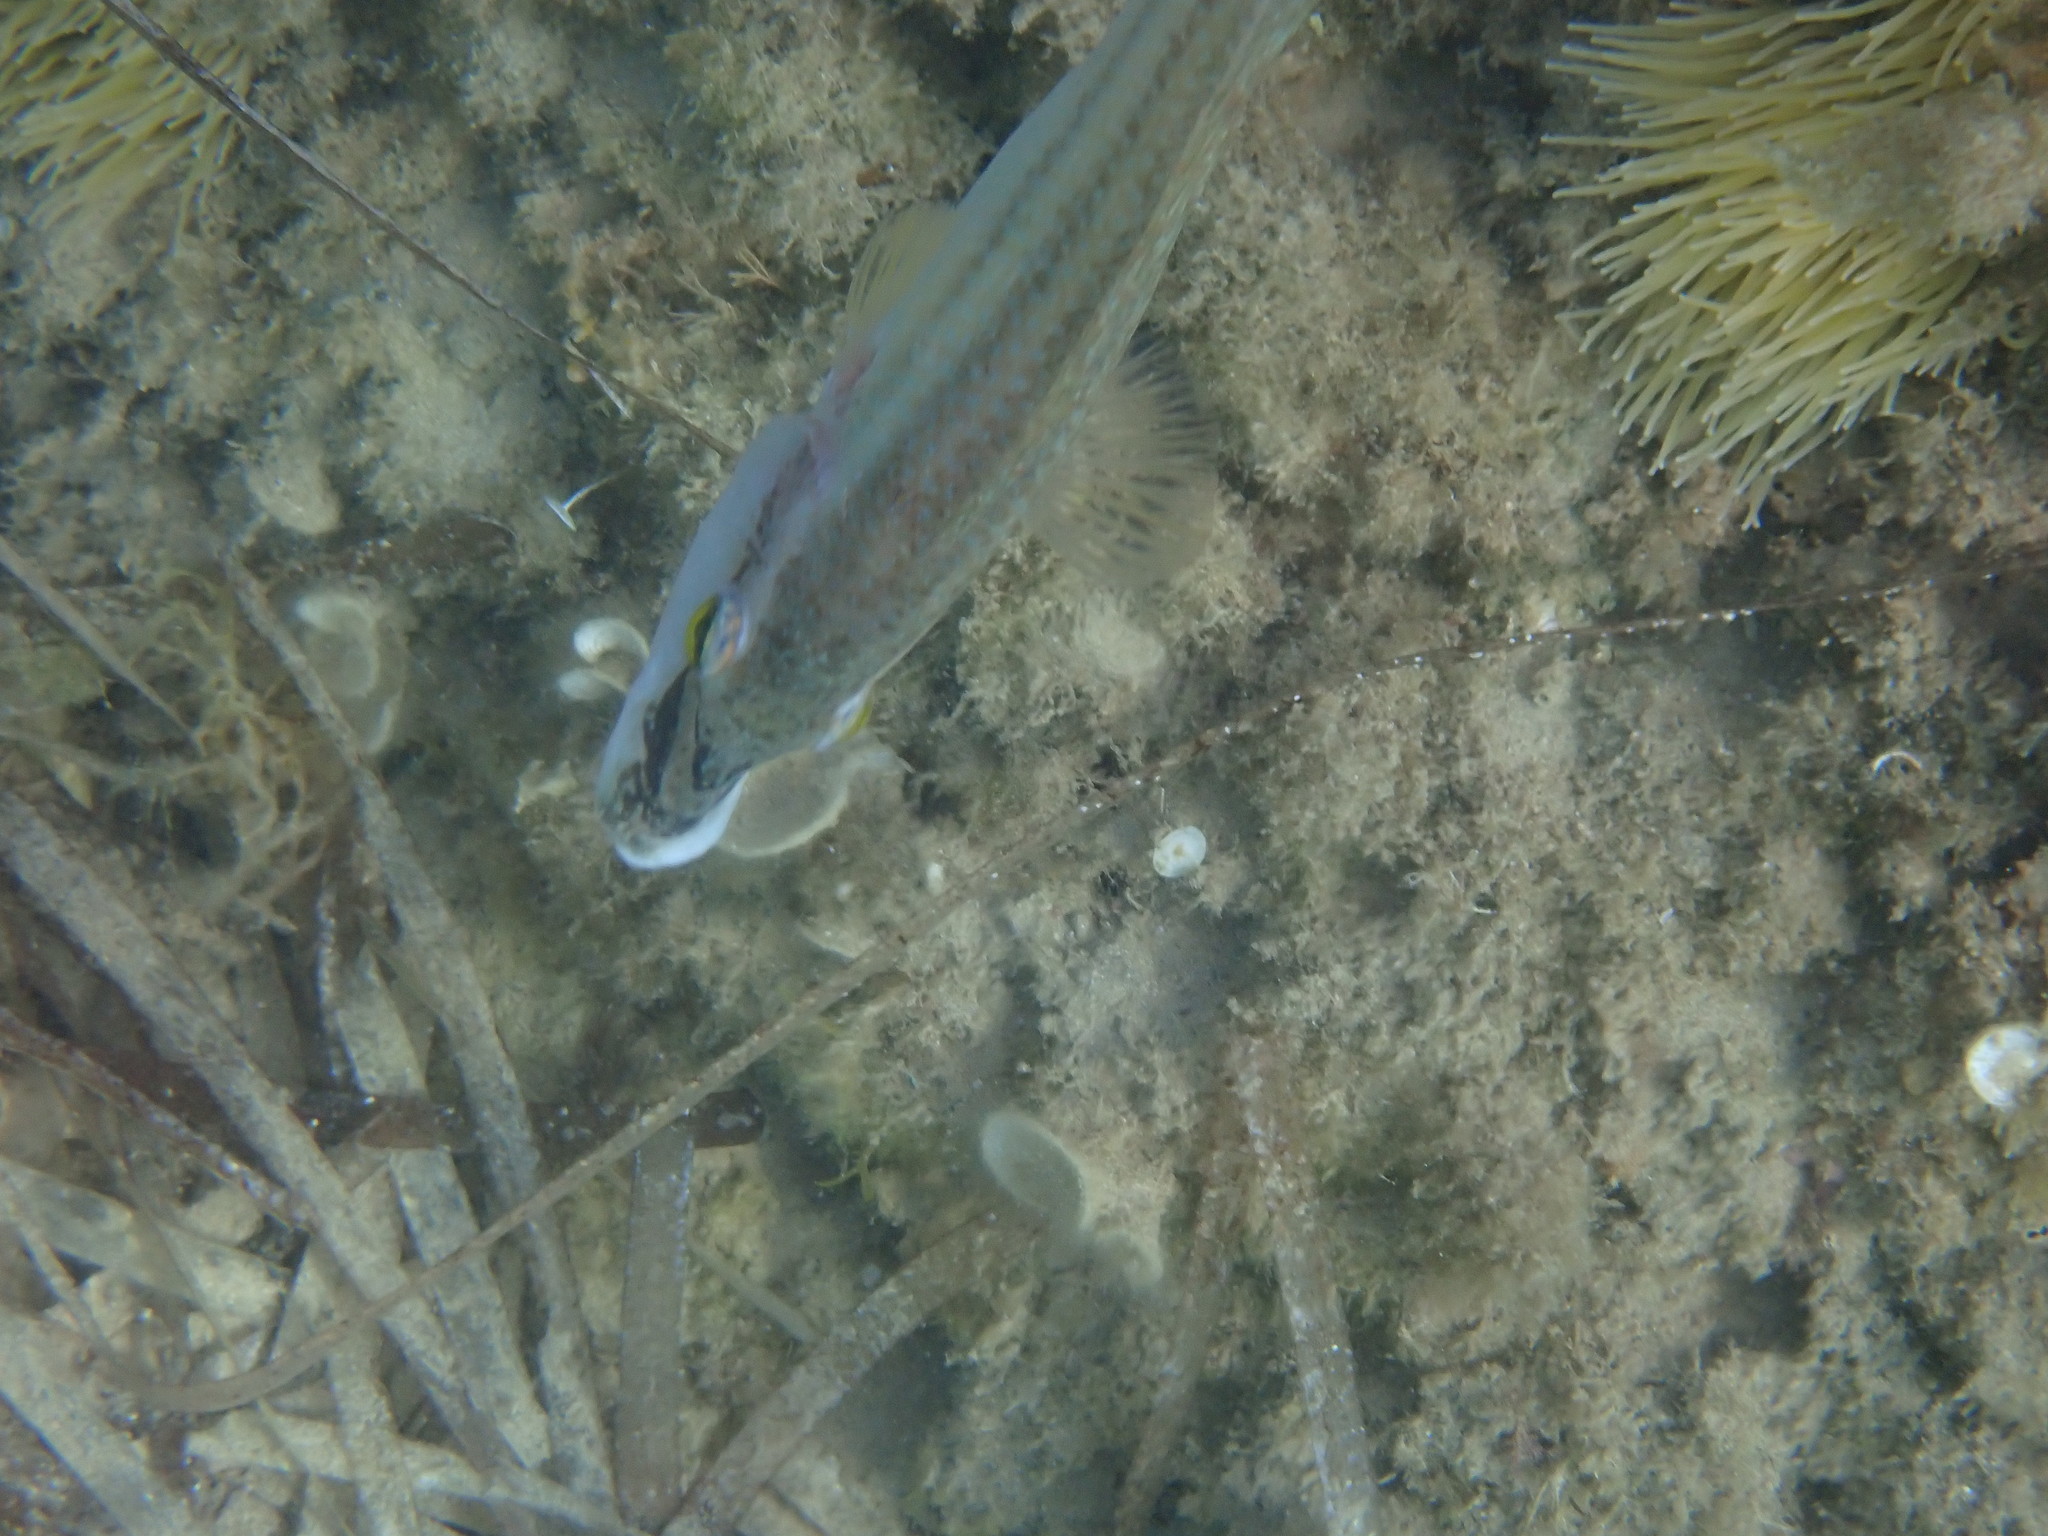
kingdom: Animalia
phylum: Chordata
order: Perciformes
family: Labridae
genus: Symphodus
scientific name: Symphodus tinca
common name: Peacock wrasse
